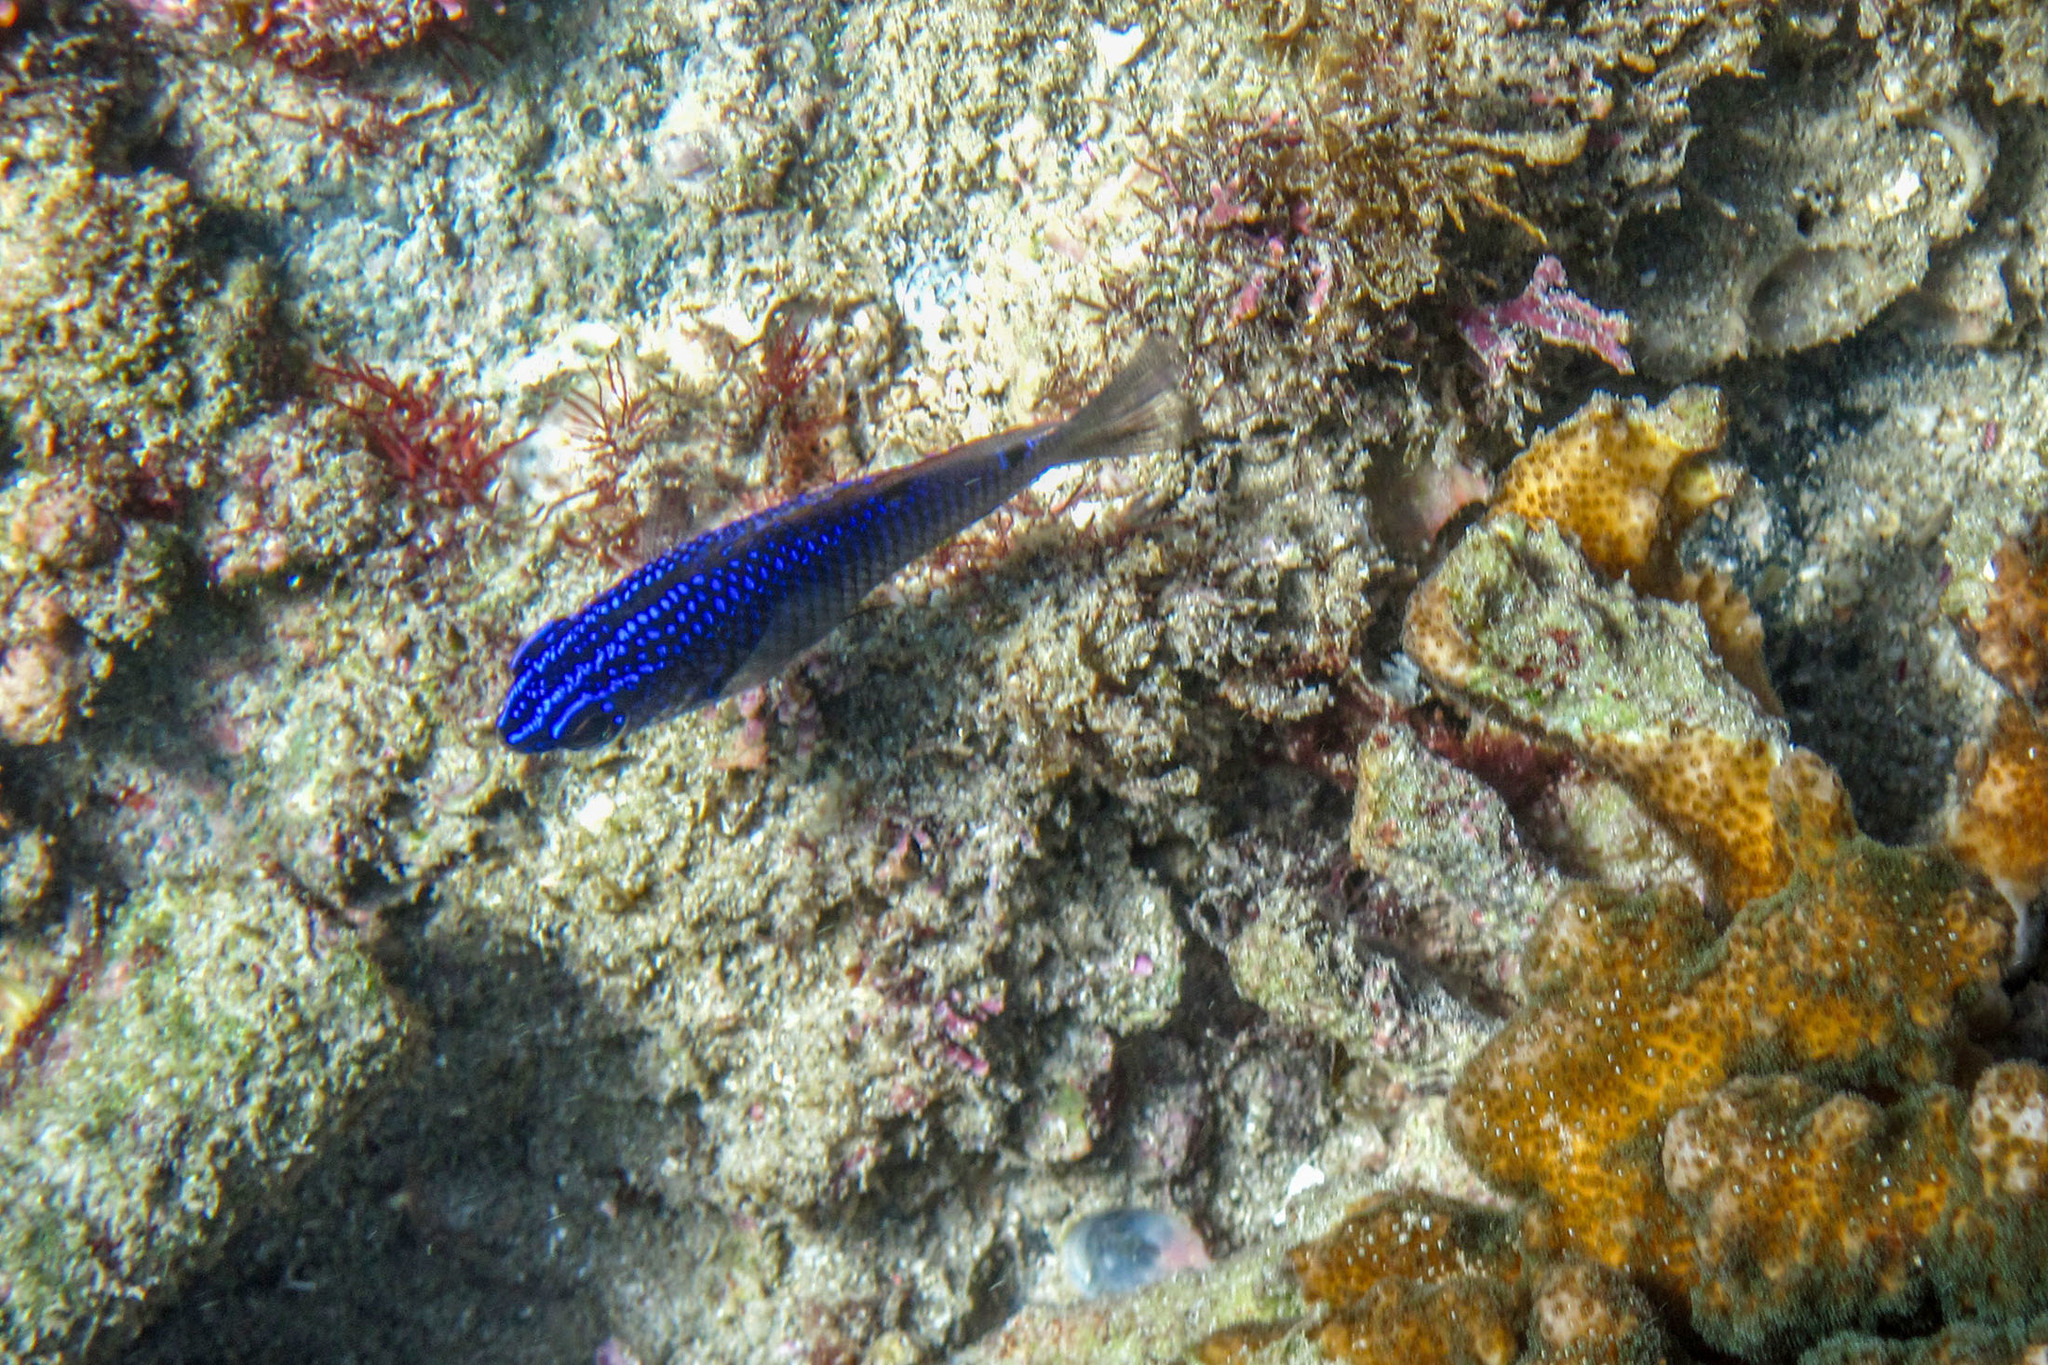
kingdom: Animalia
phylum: Chordata
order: Perciformes
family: Pomacentridae
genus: Stegastes
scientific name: Stegastes acapulcoensis
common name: Acapulco damselfish
